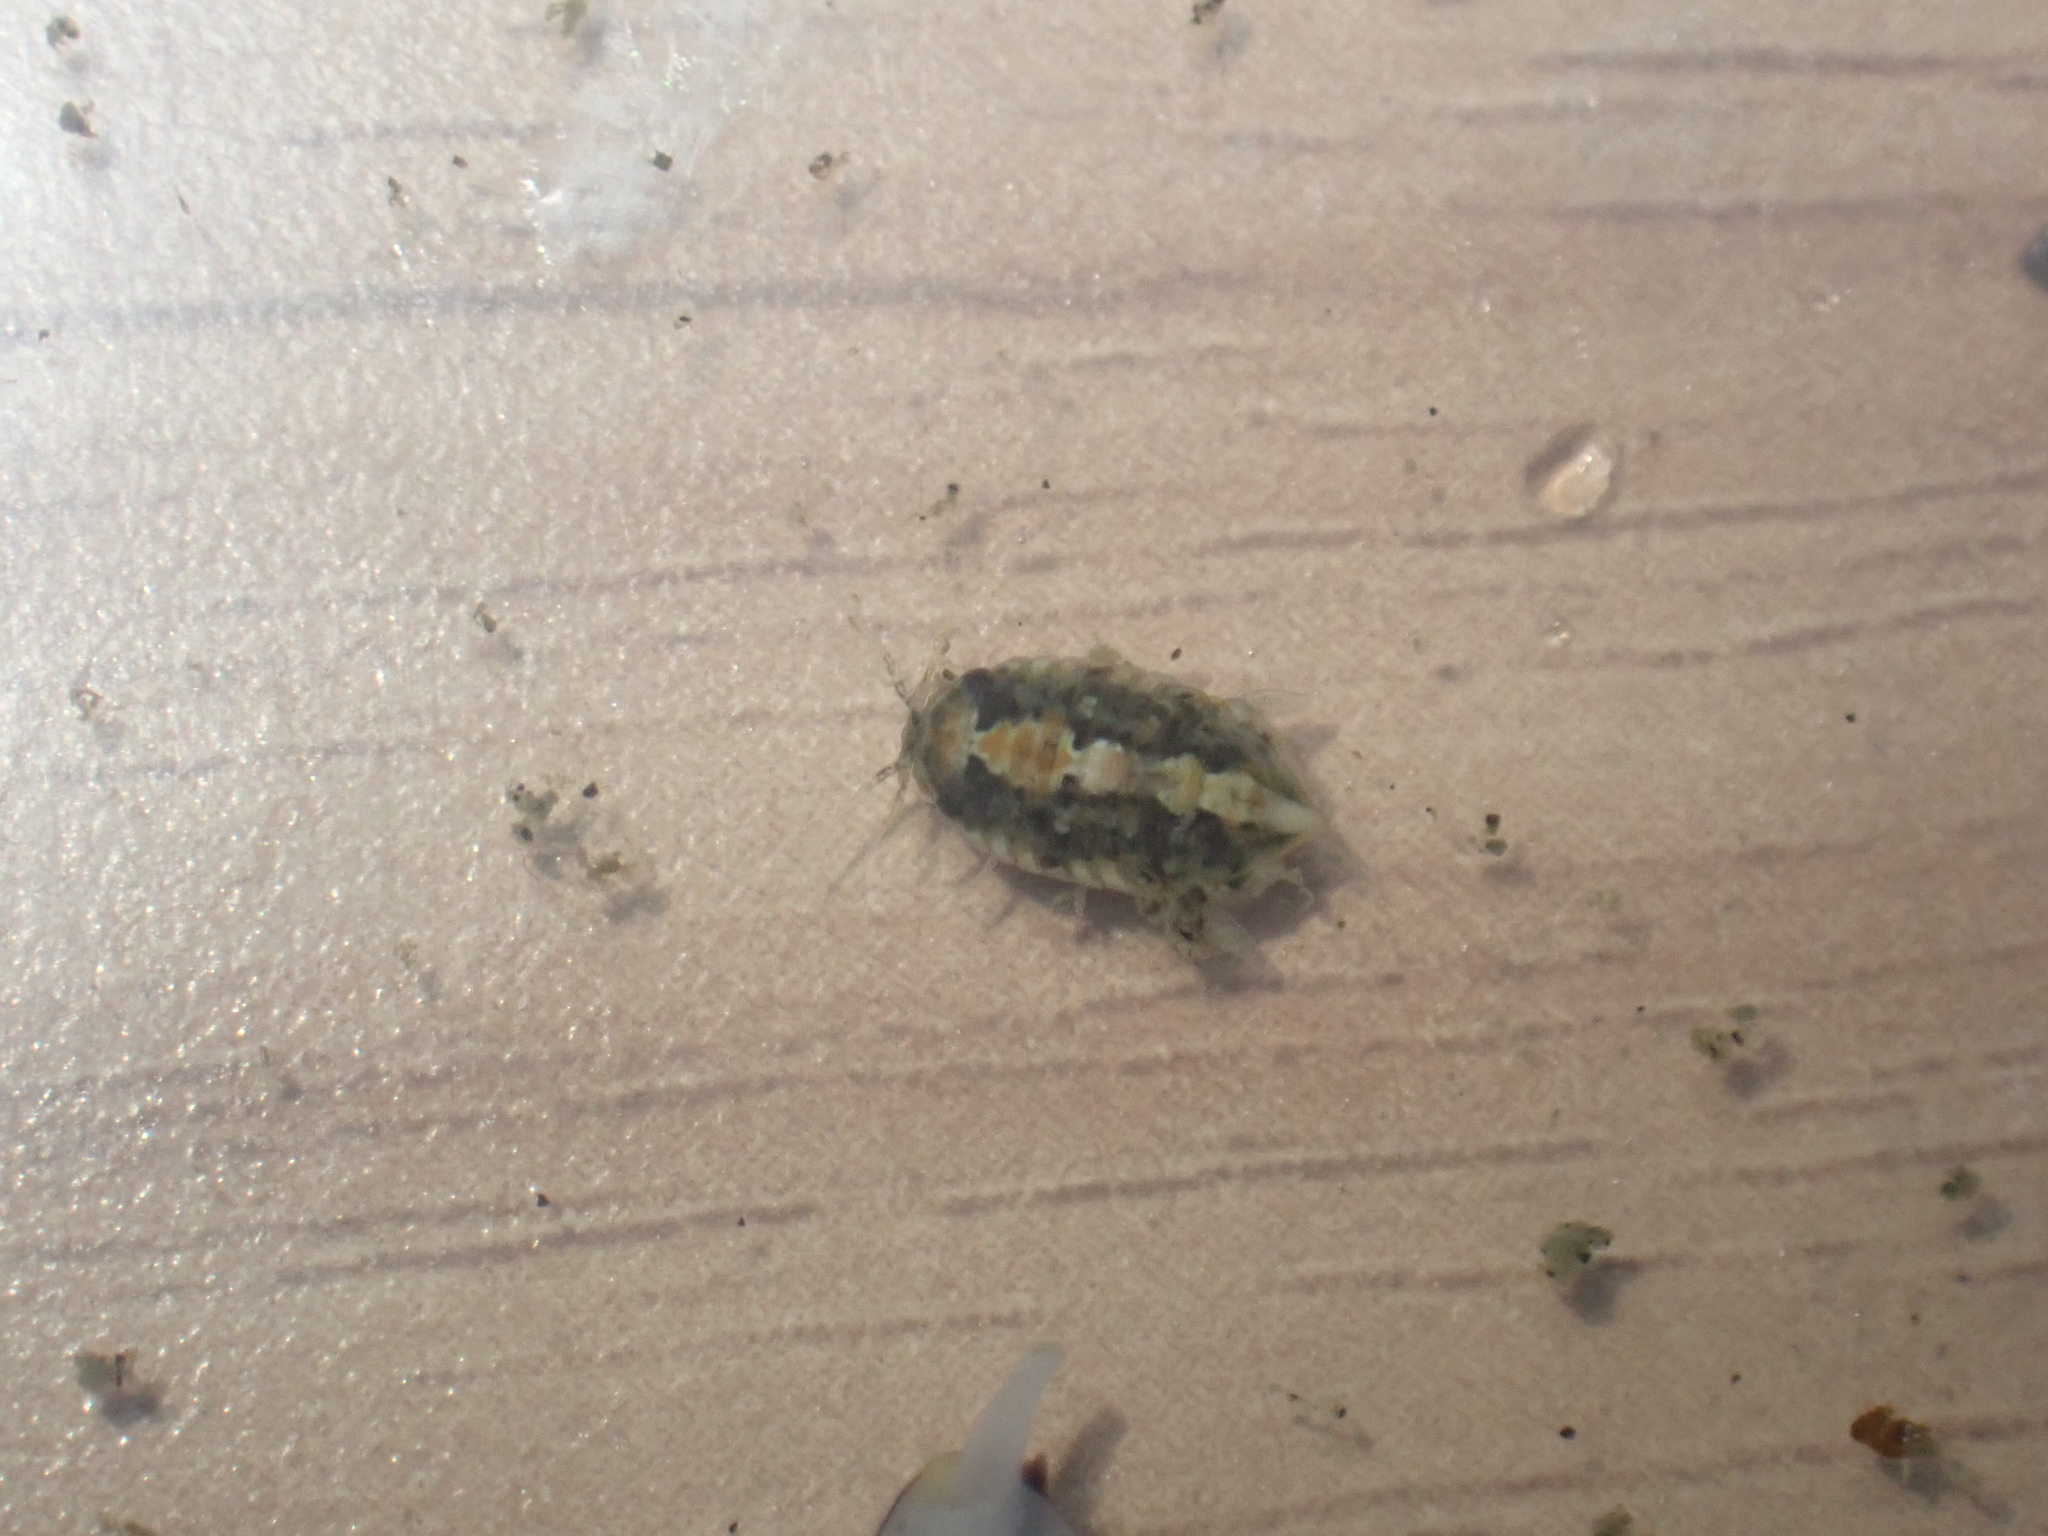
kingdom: Animalia
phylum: Arthropoda
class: Malacostraca
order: Isopoda
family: Sphaeromatidae
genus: Isocladus
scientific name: Isocladus armatus
